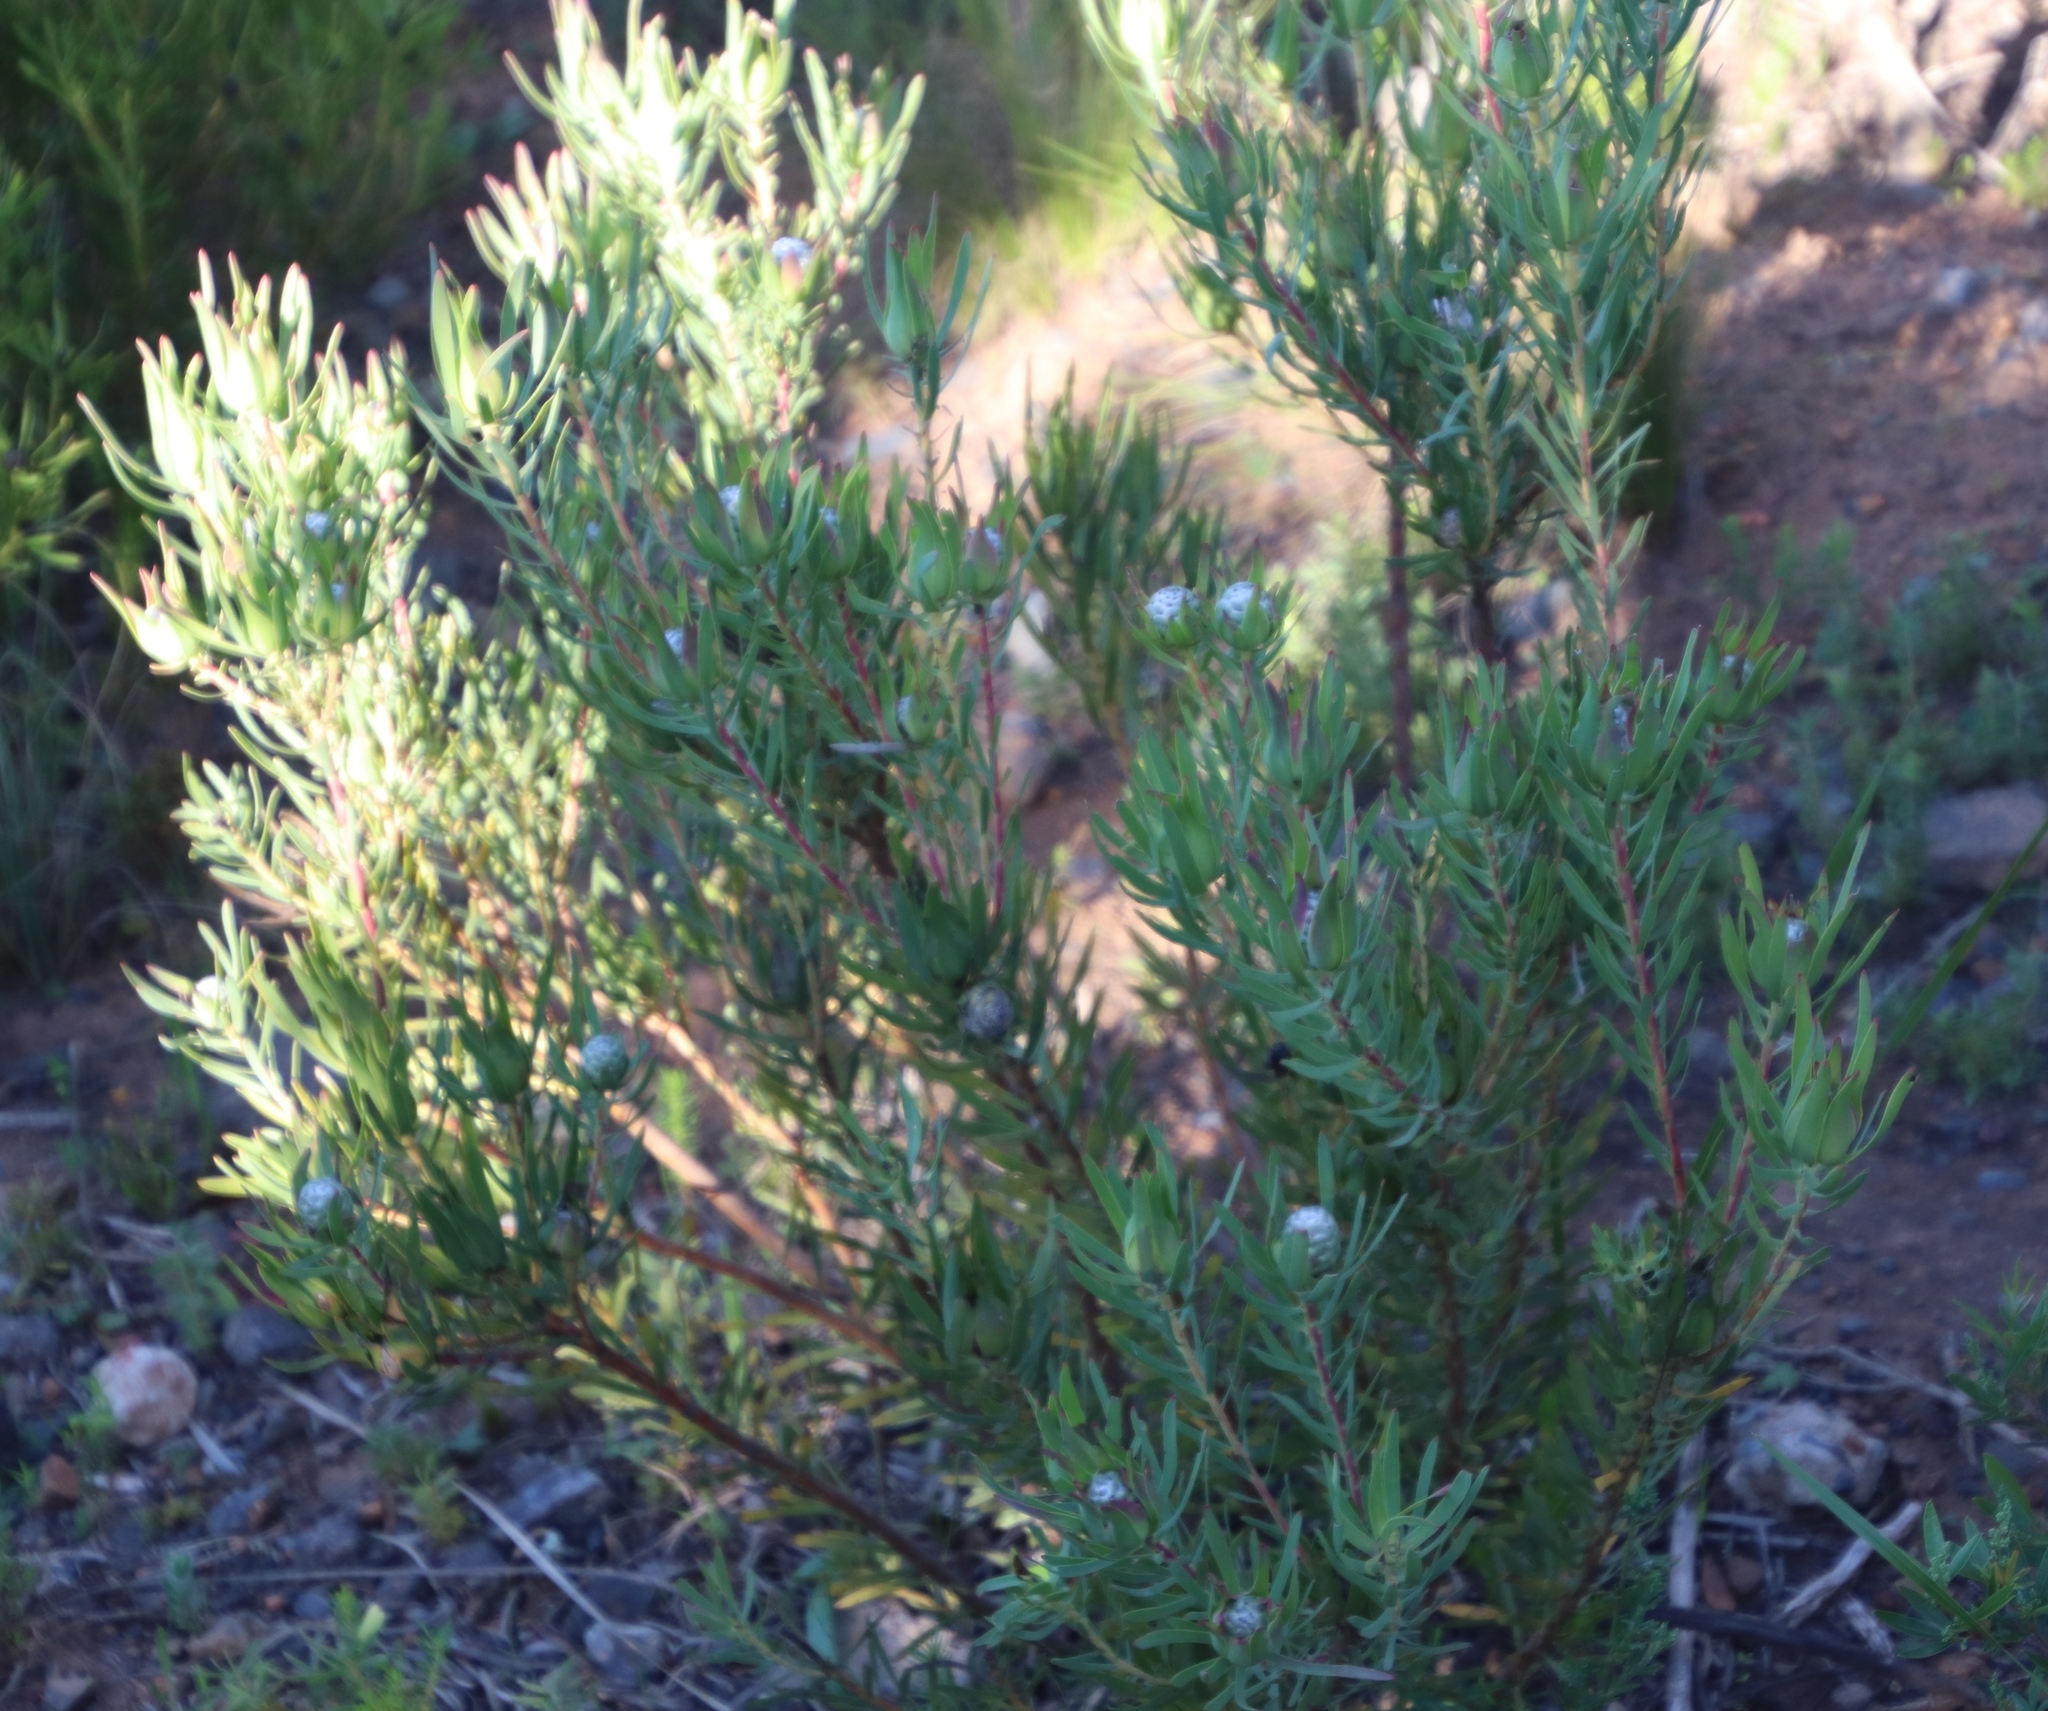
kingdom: Plantae
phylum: Tracheophyta
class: Magnoliopsida
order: Proteales
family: Proteaceae
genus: Leucadendron
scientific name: Leucadendron salignum
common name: Common sunshine conebush
